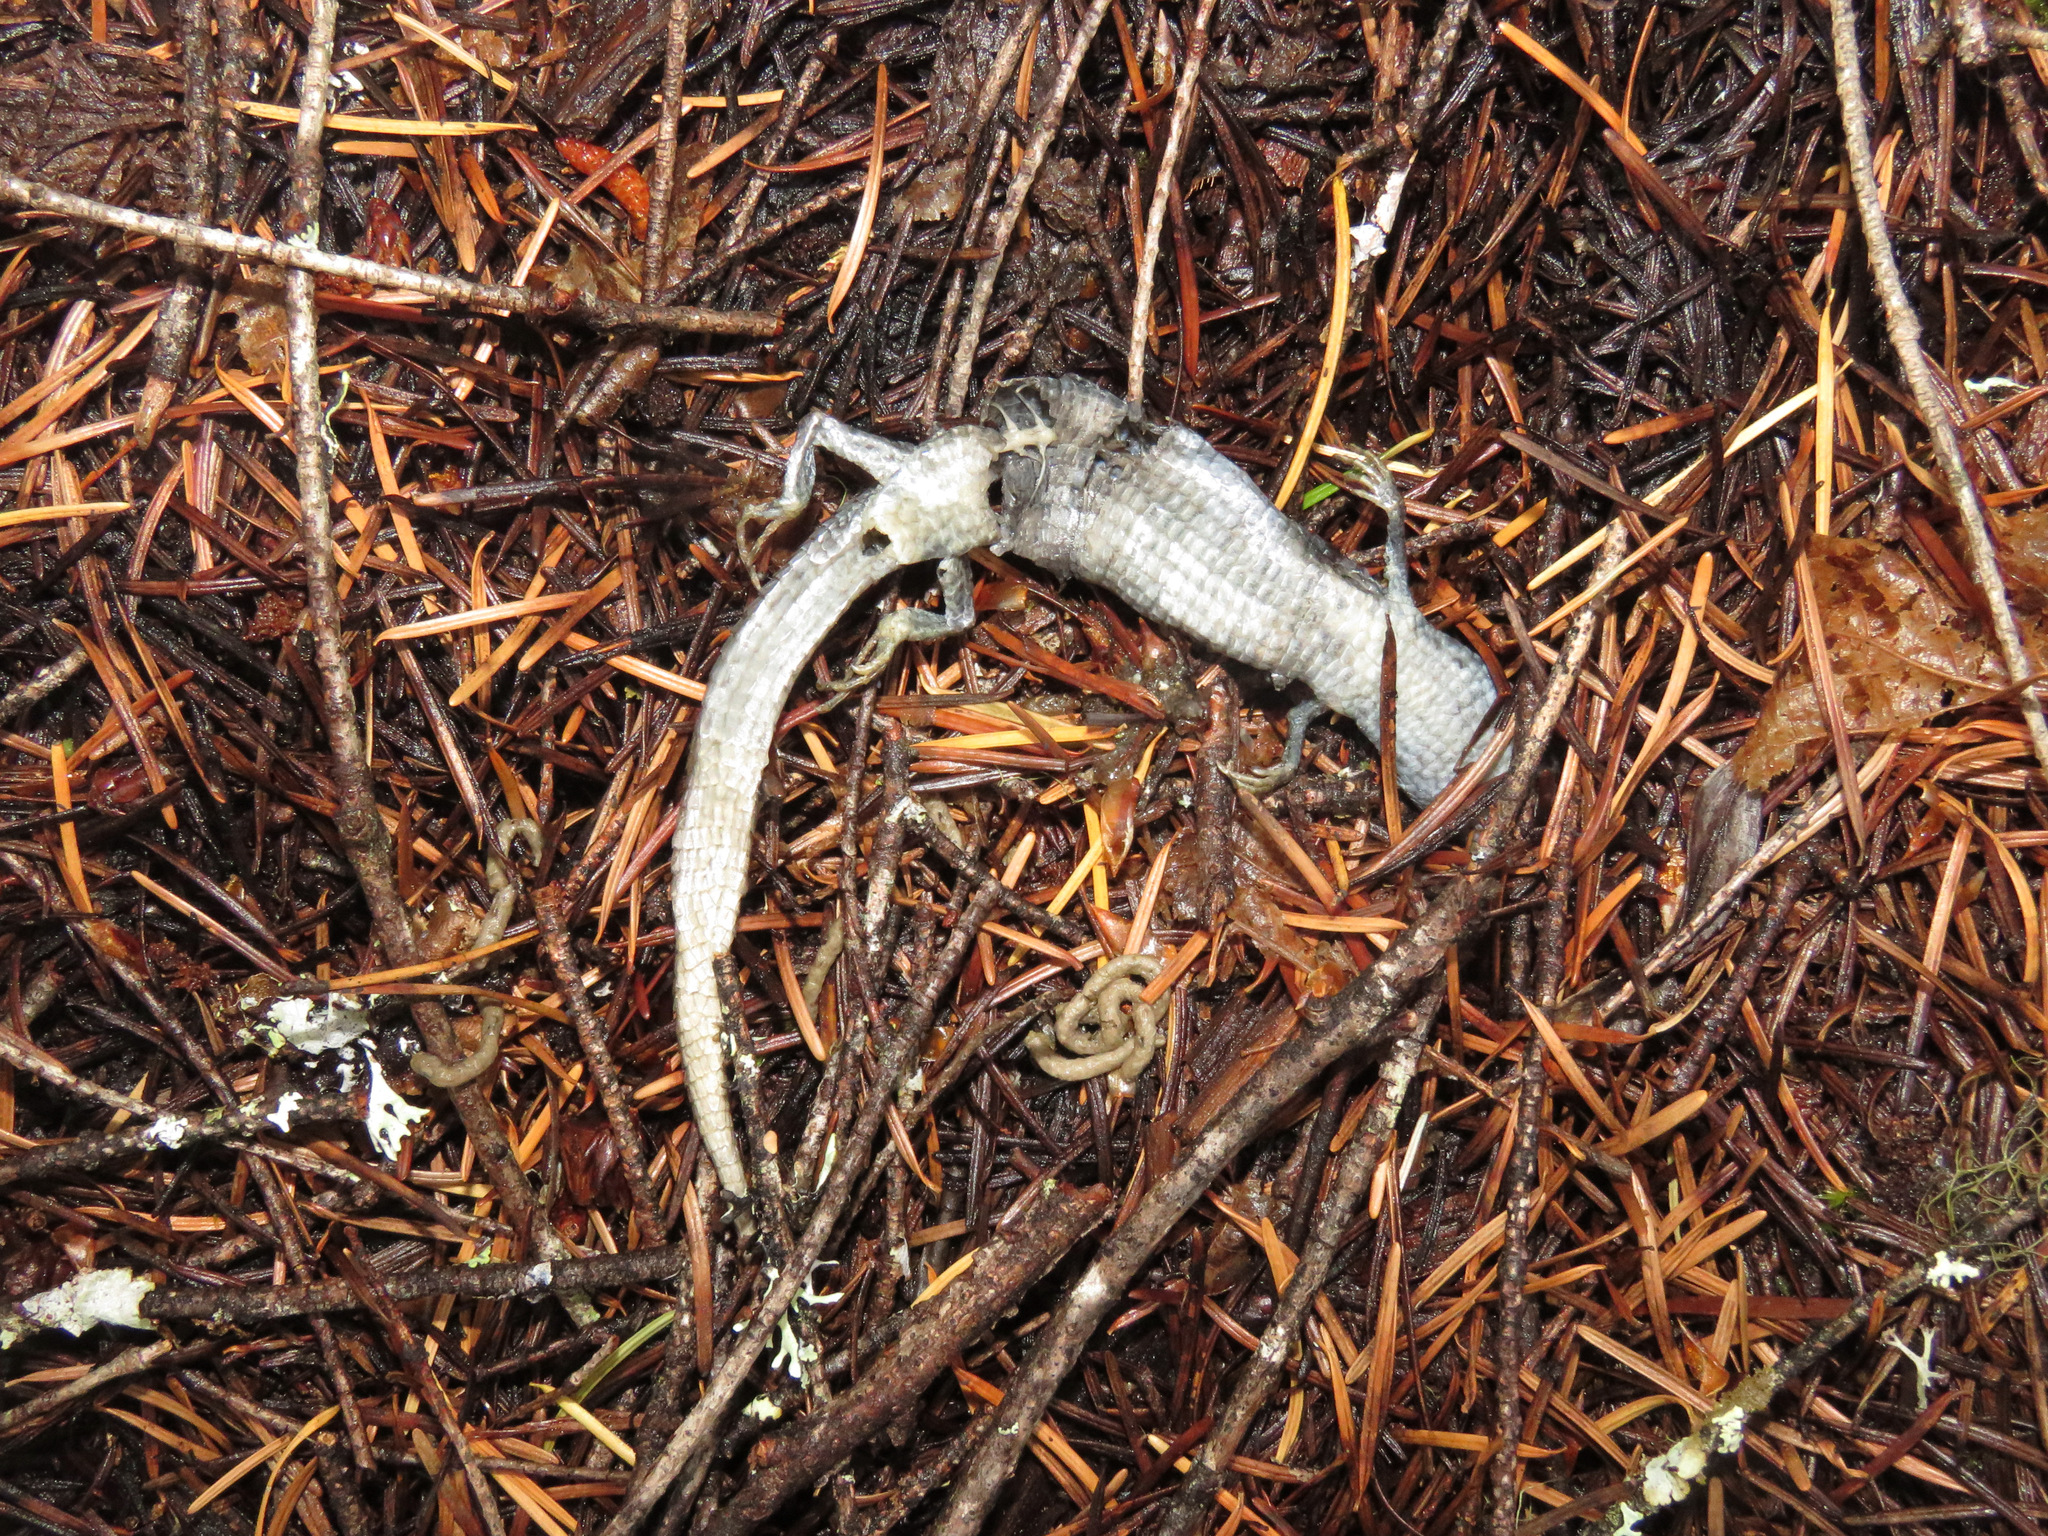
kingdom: Animalia
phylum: Chordata
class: Squamata
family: Anguidae
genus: Elgaria
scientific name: Elgaria coerulea
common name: Northern alligator lizard
